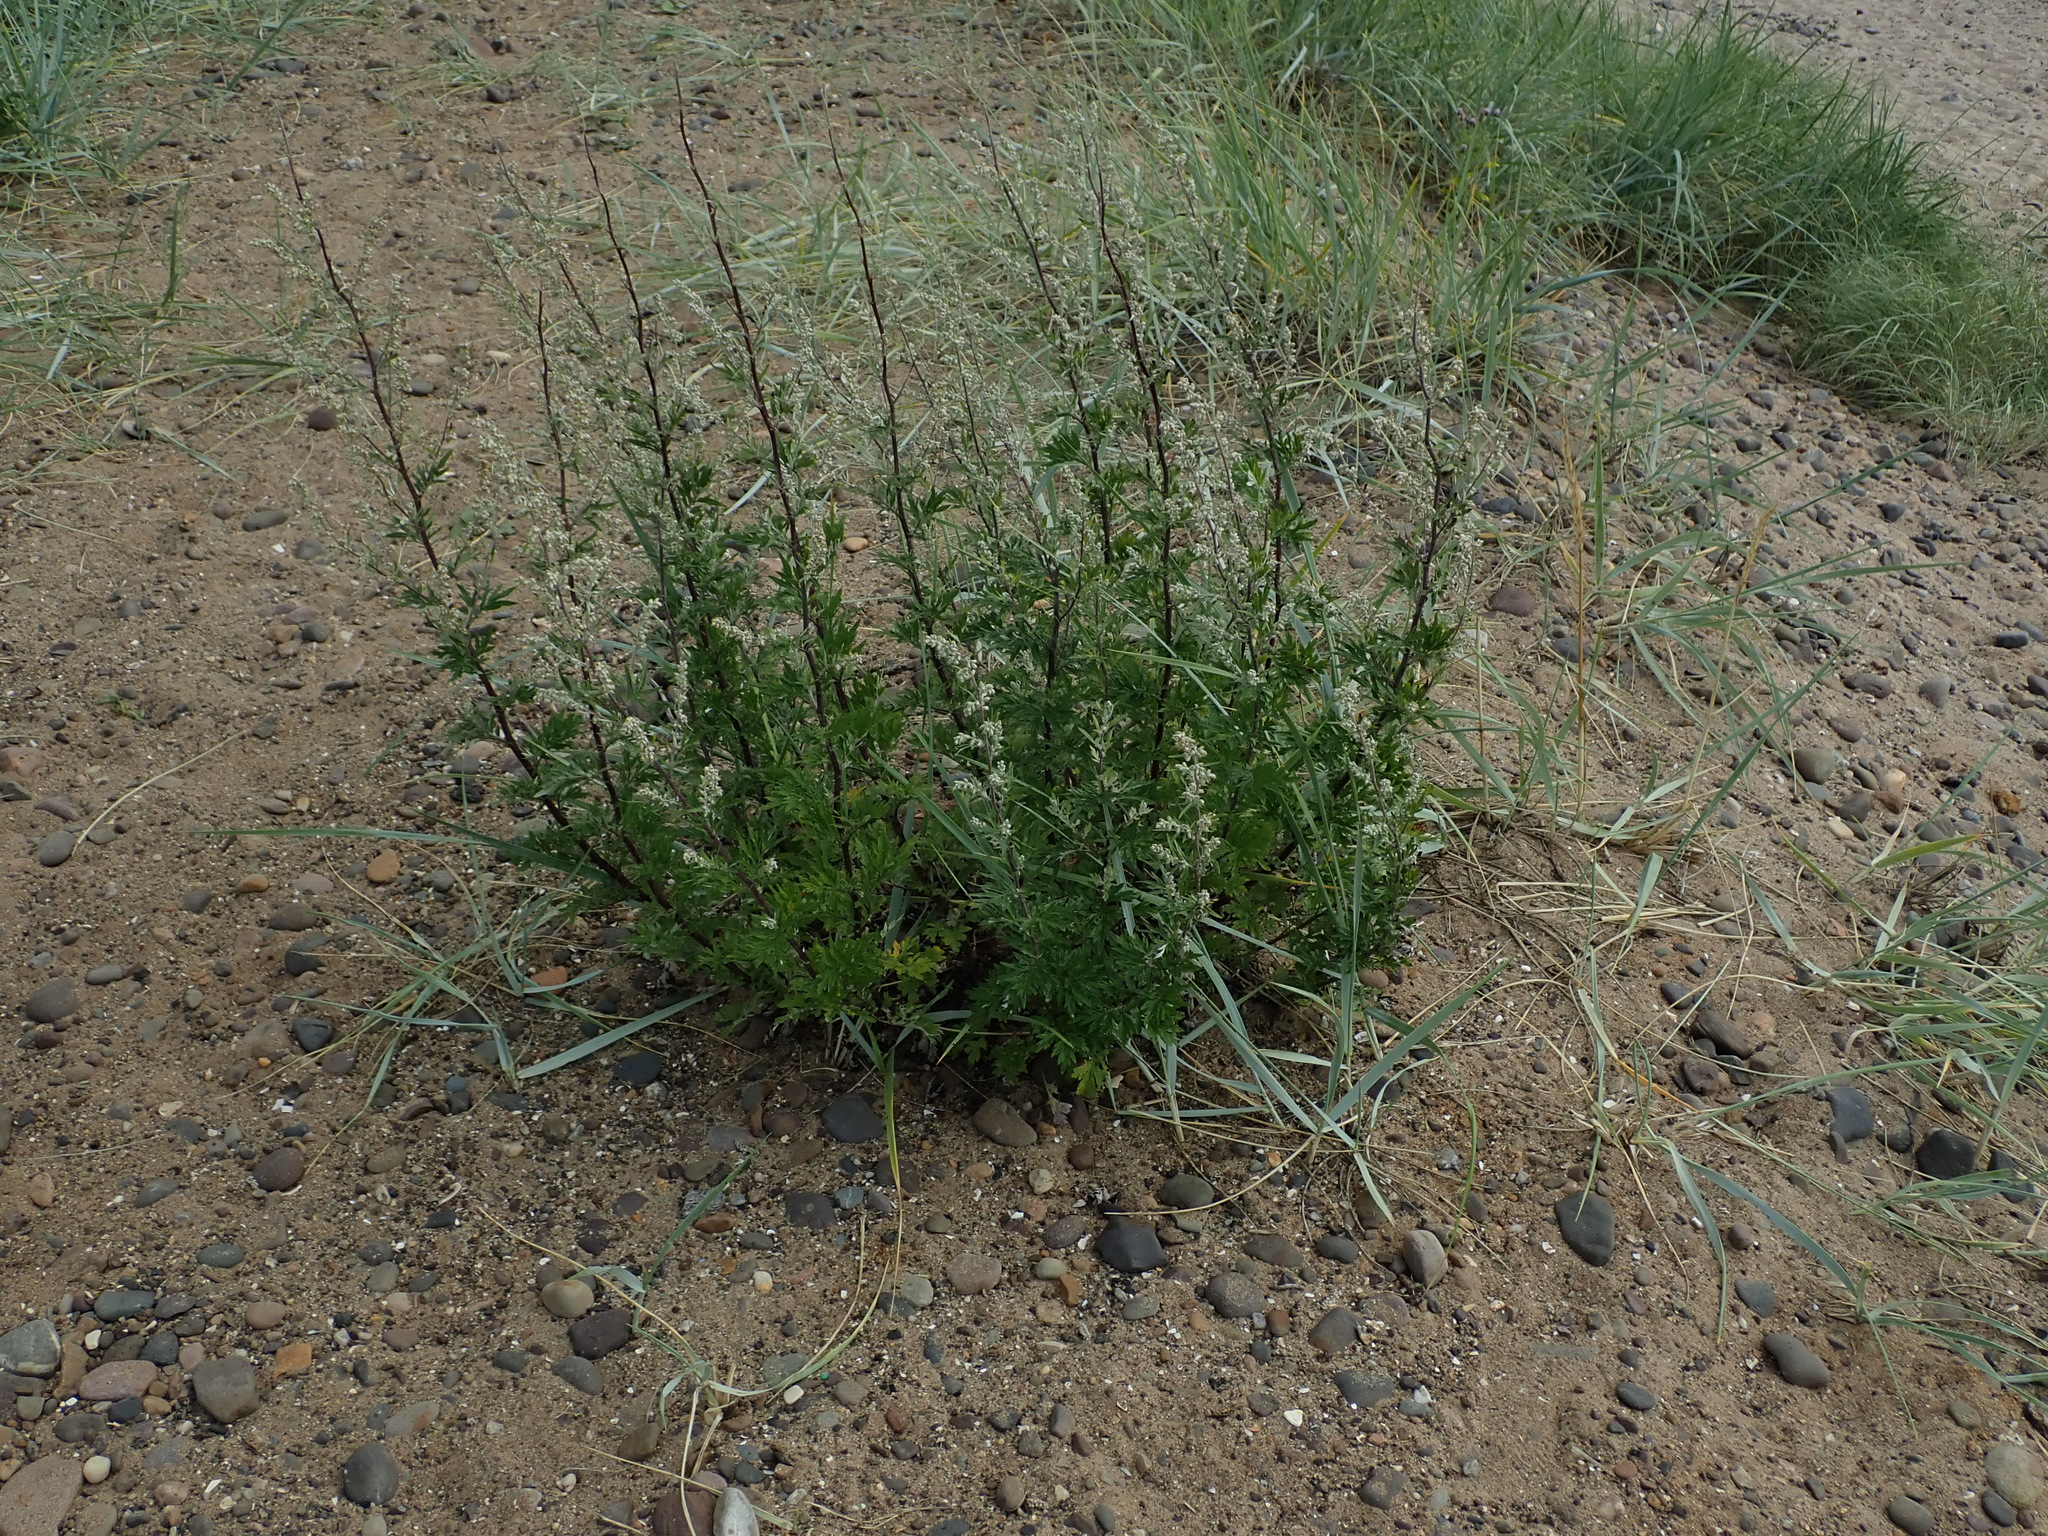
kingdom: Plantae
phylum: Tracheophyta
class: Magnoliopsida
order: Asterales
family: Asteraceae
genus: Artemisia
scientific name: Artemisia vulgaris
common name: Mugwort
